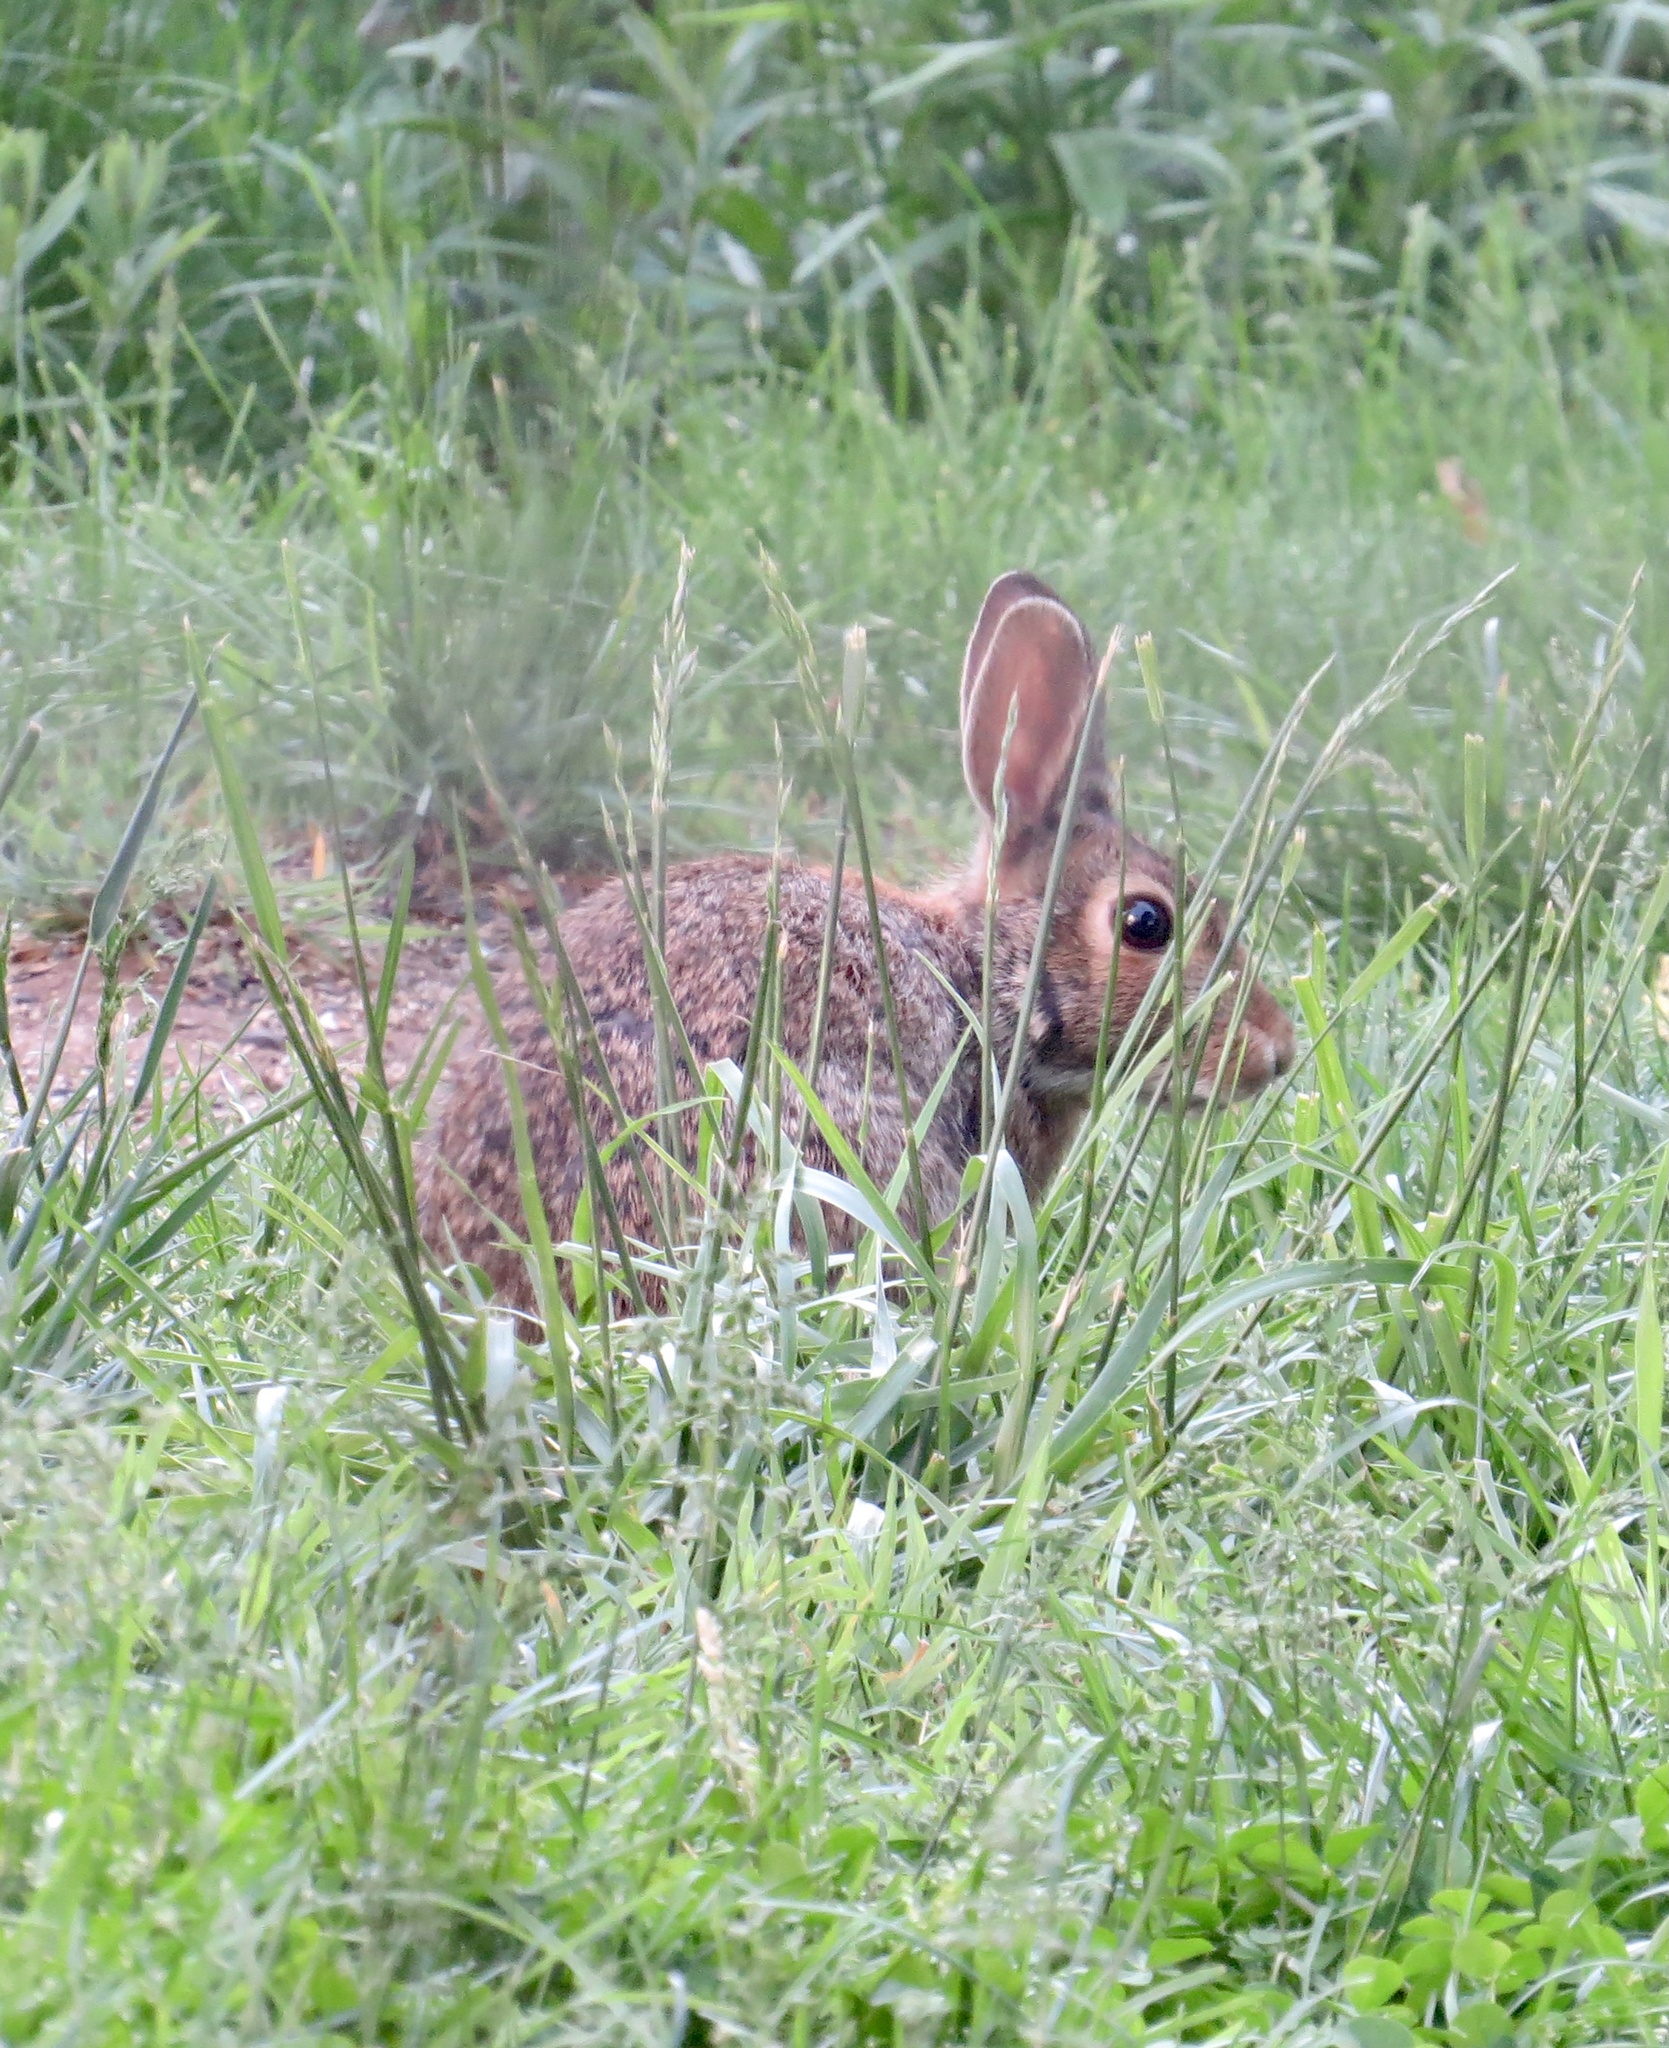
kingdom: Animalia
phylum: Chordata
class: Mammalia
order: Lagomorpha
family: Leporidae
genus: Sylvilagus
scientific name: Sylvilagus floridanus
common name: Eastern cottontail
